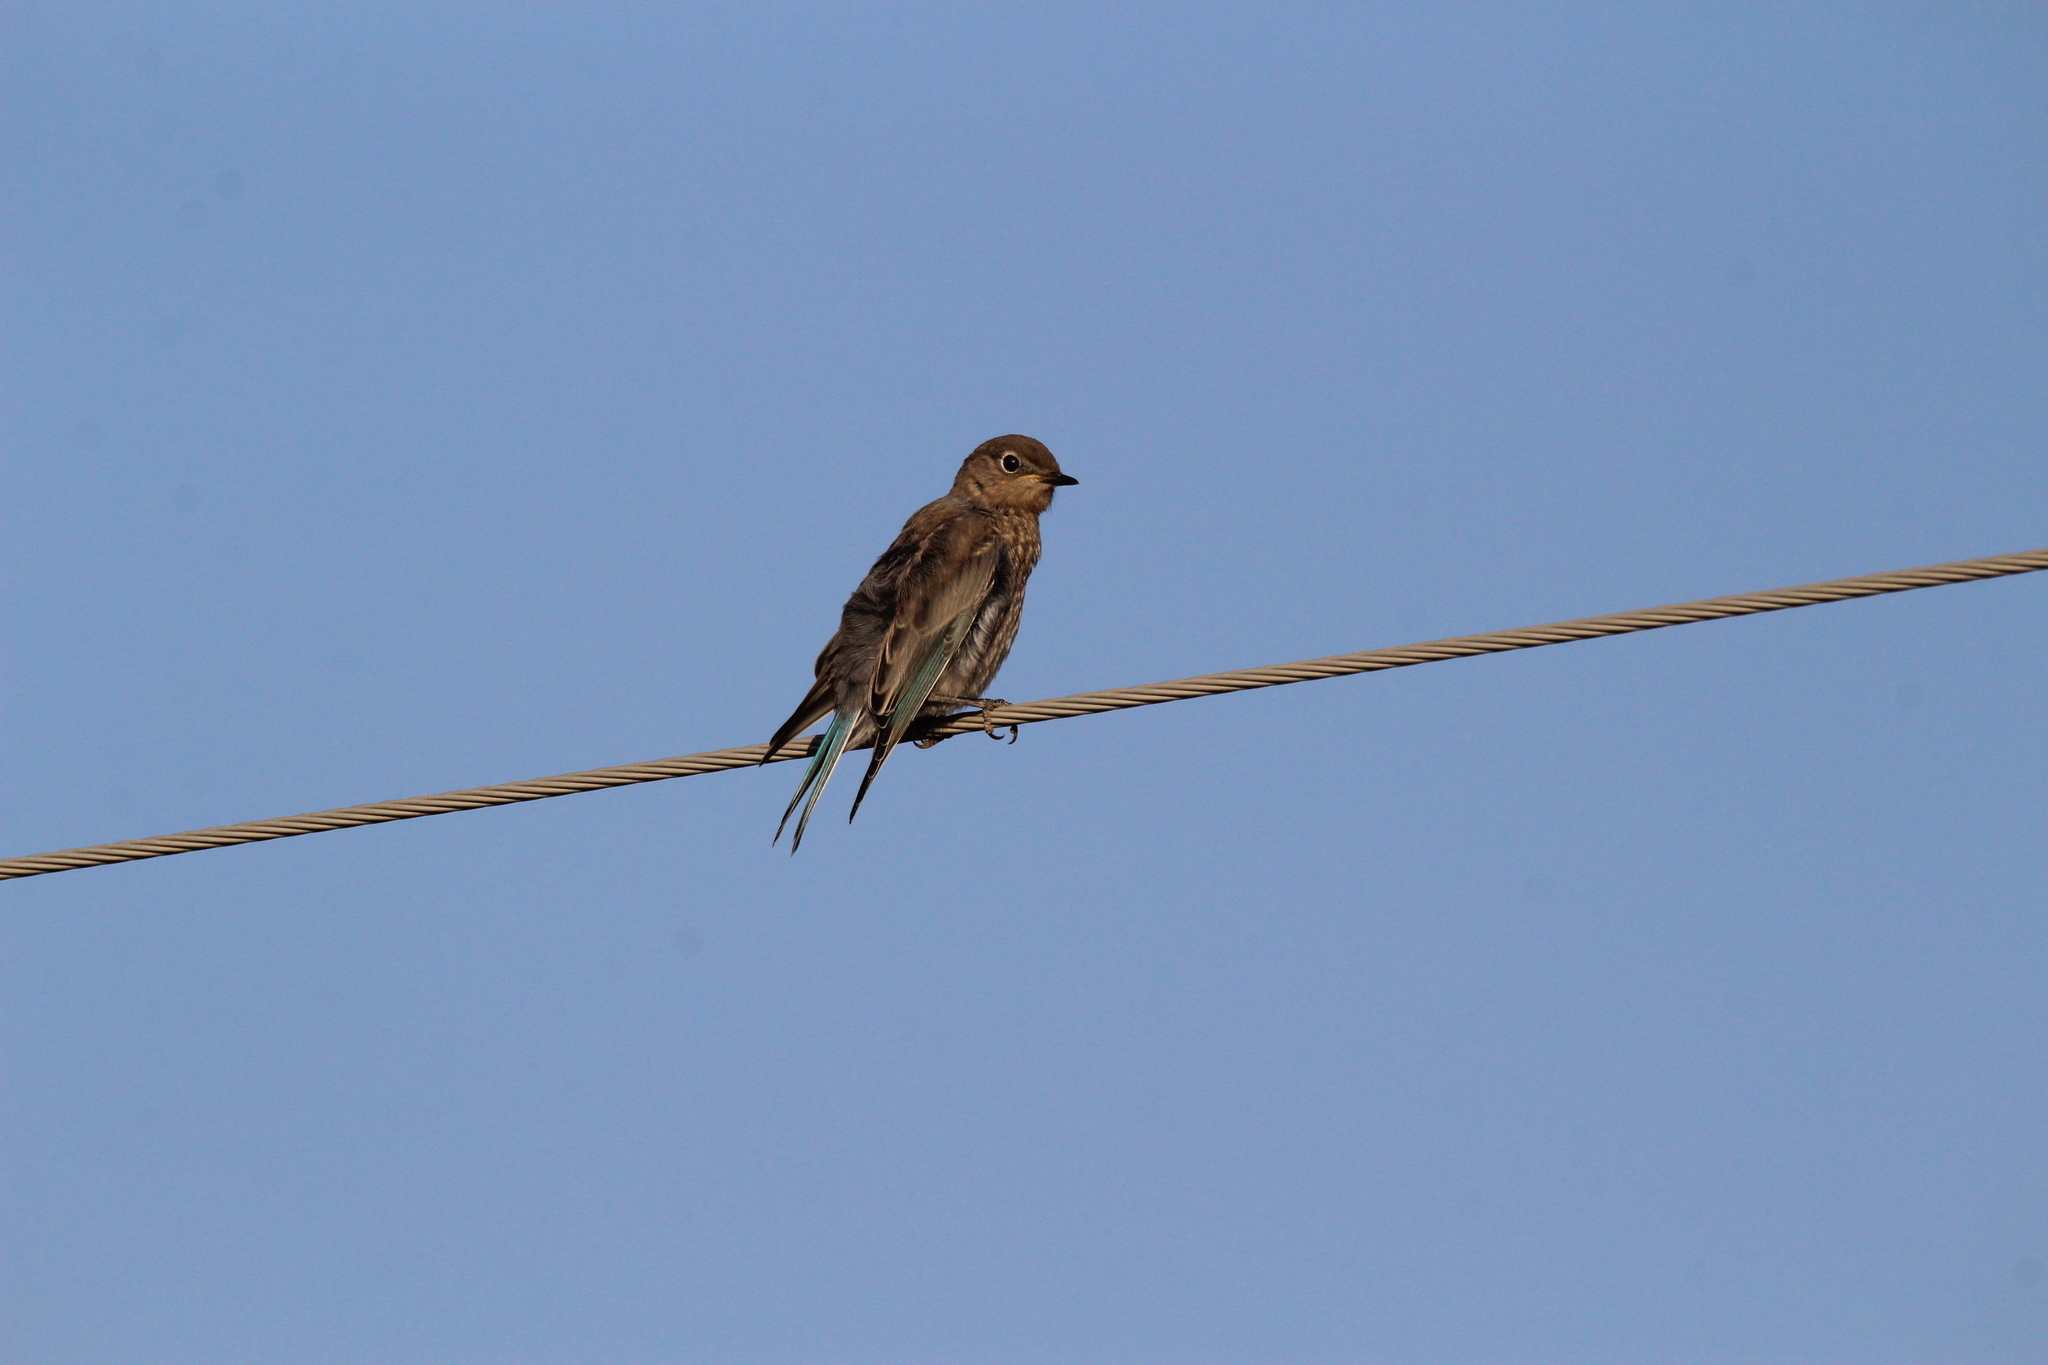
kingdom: Animalia
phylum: Chordata
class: Aves
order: Passeriformes
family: Turdidae
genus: Sialia
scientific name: Sialia currucoides
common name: Mountain bluebird
